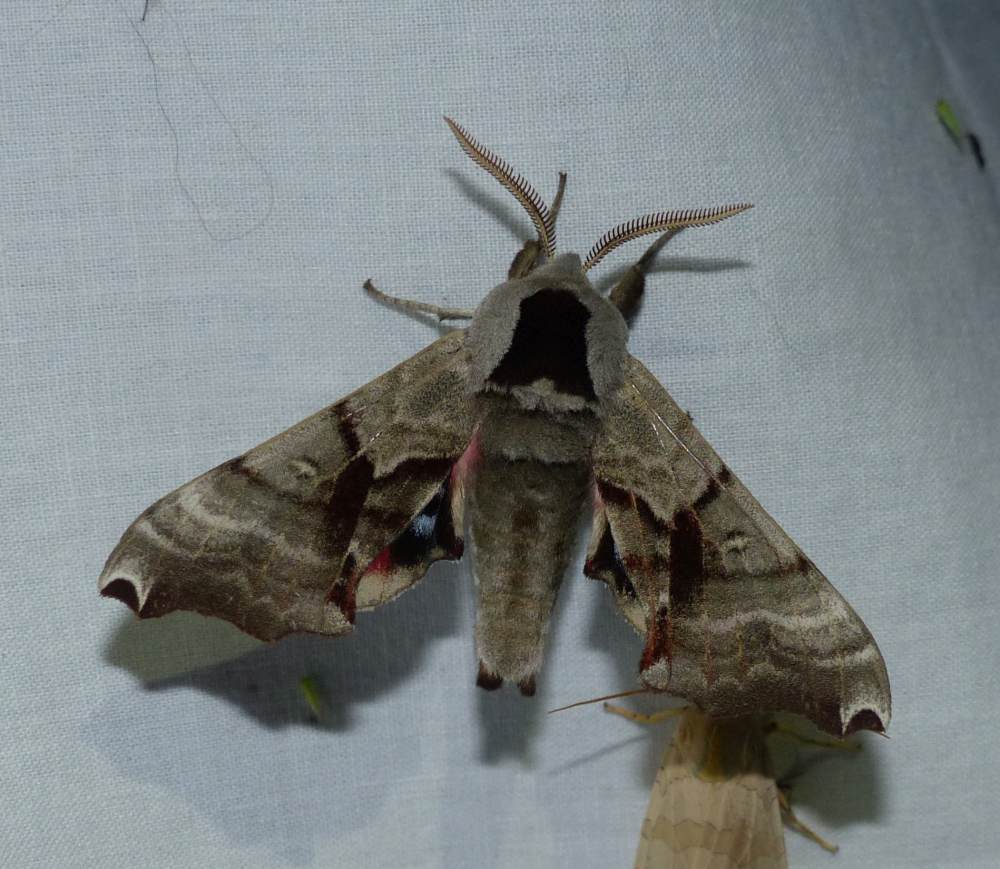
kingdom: Animalia
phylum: Arthropoda
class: Insecta
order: Lepidoptera
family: Sphingidae
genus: Smerinthus
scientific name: Smerinthus jamaicensis
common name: Twin spotted sphinx
